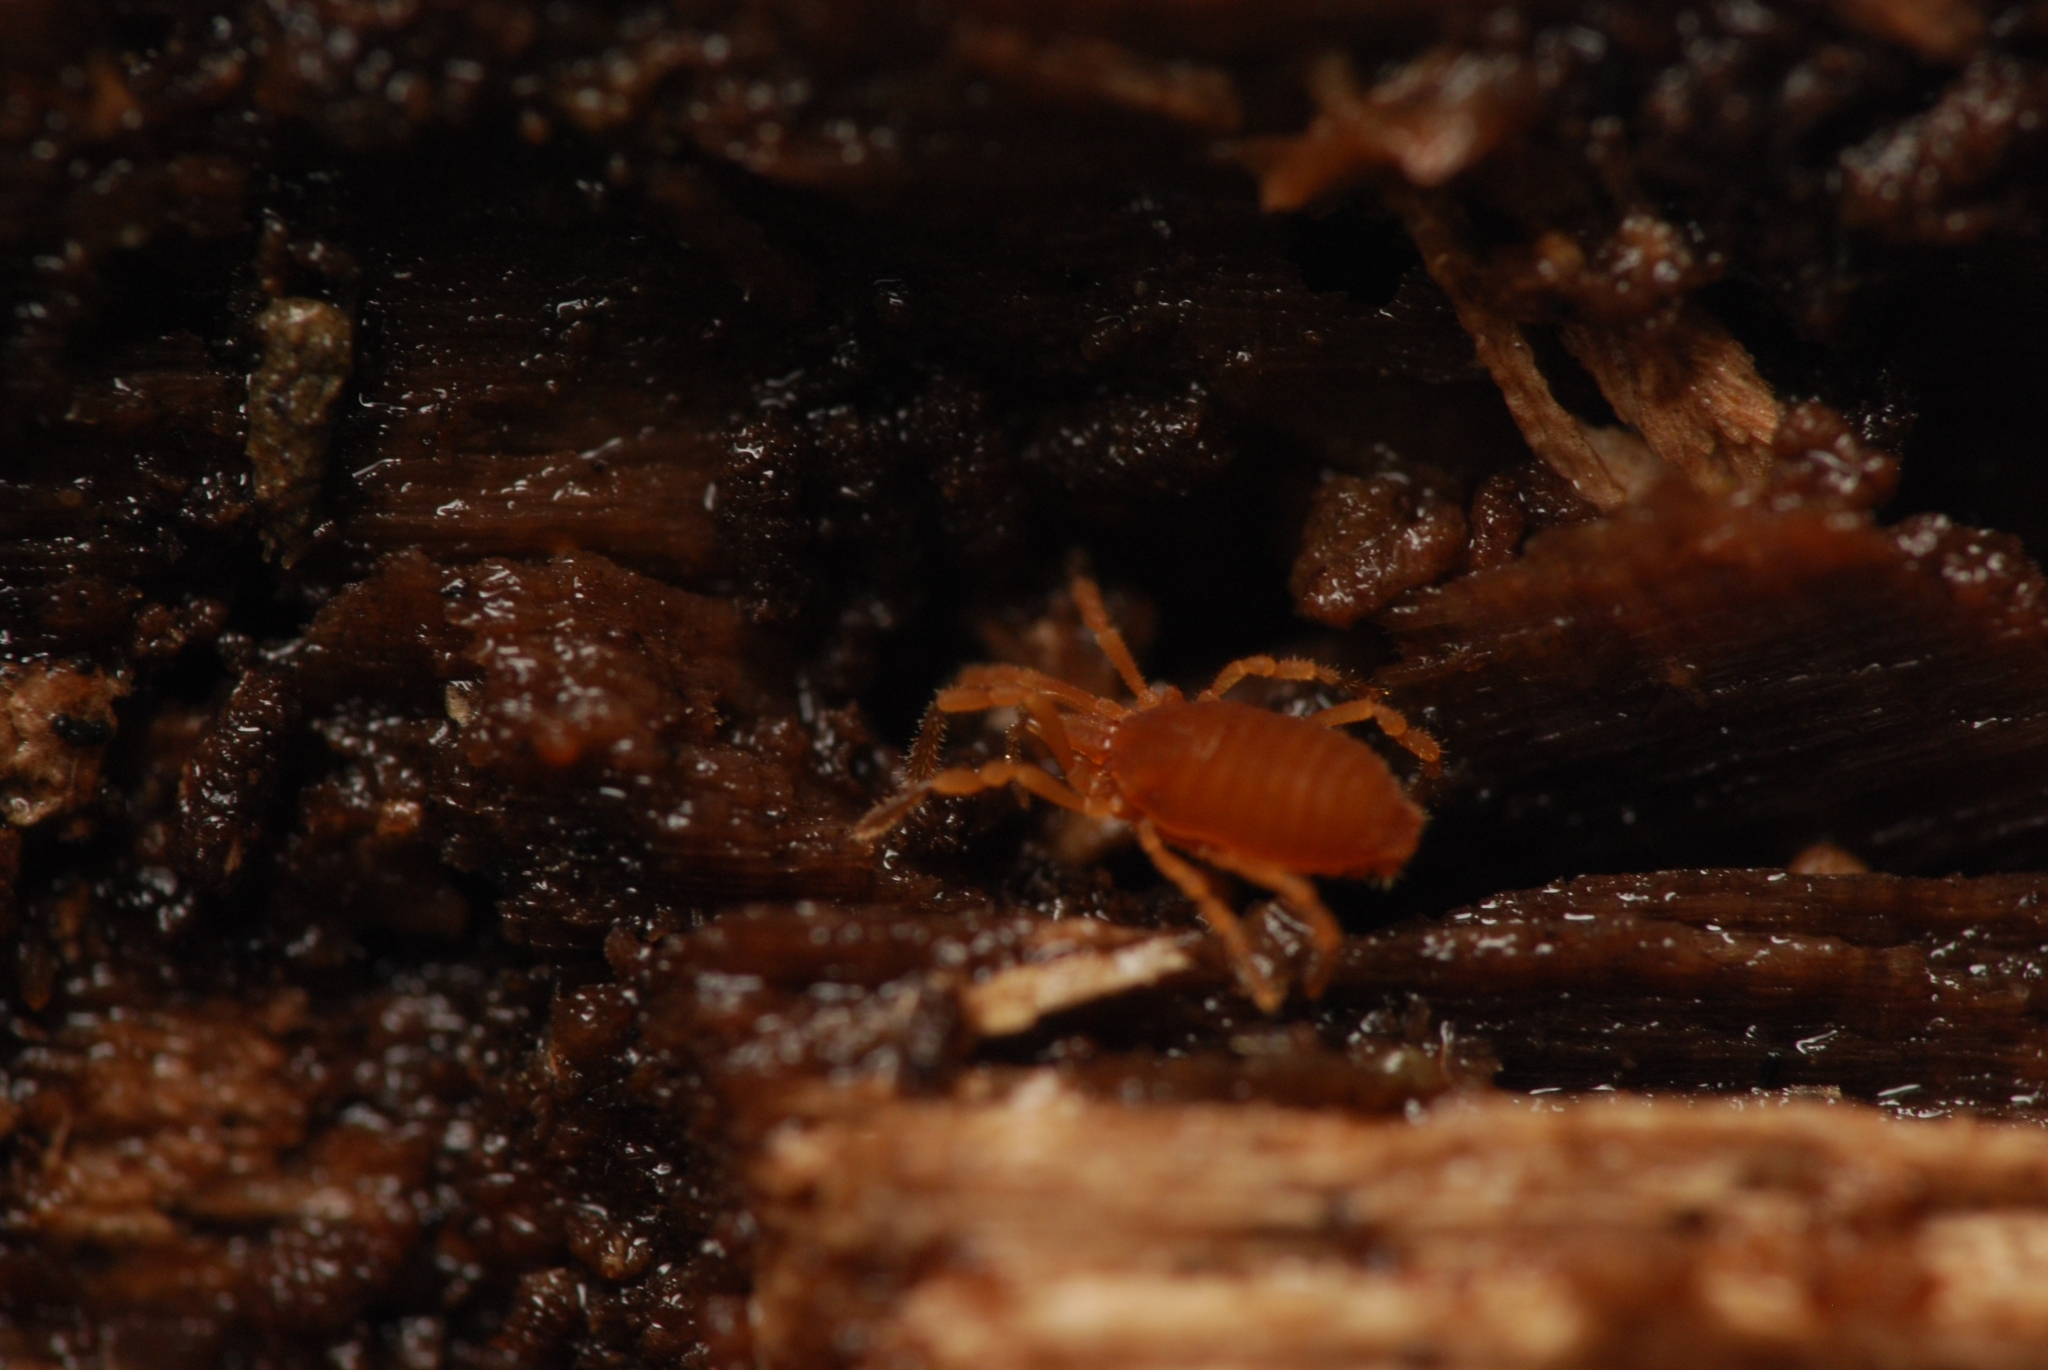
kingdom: Animalia
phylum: Arthropoda
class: Arachnida
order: Opiliones
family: Sironidae
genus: Siro
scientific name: Siro rubens
